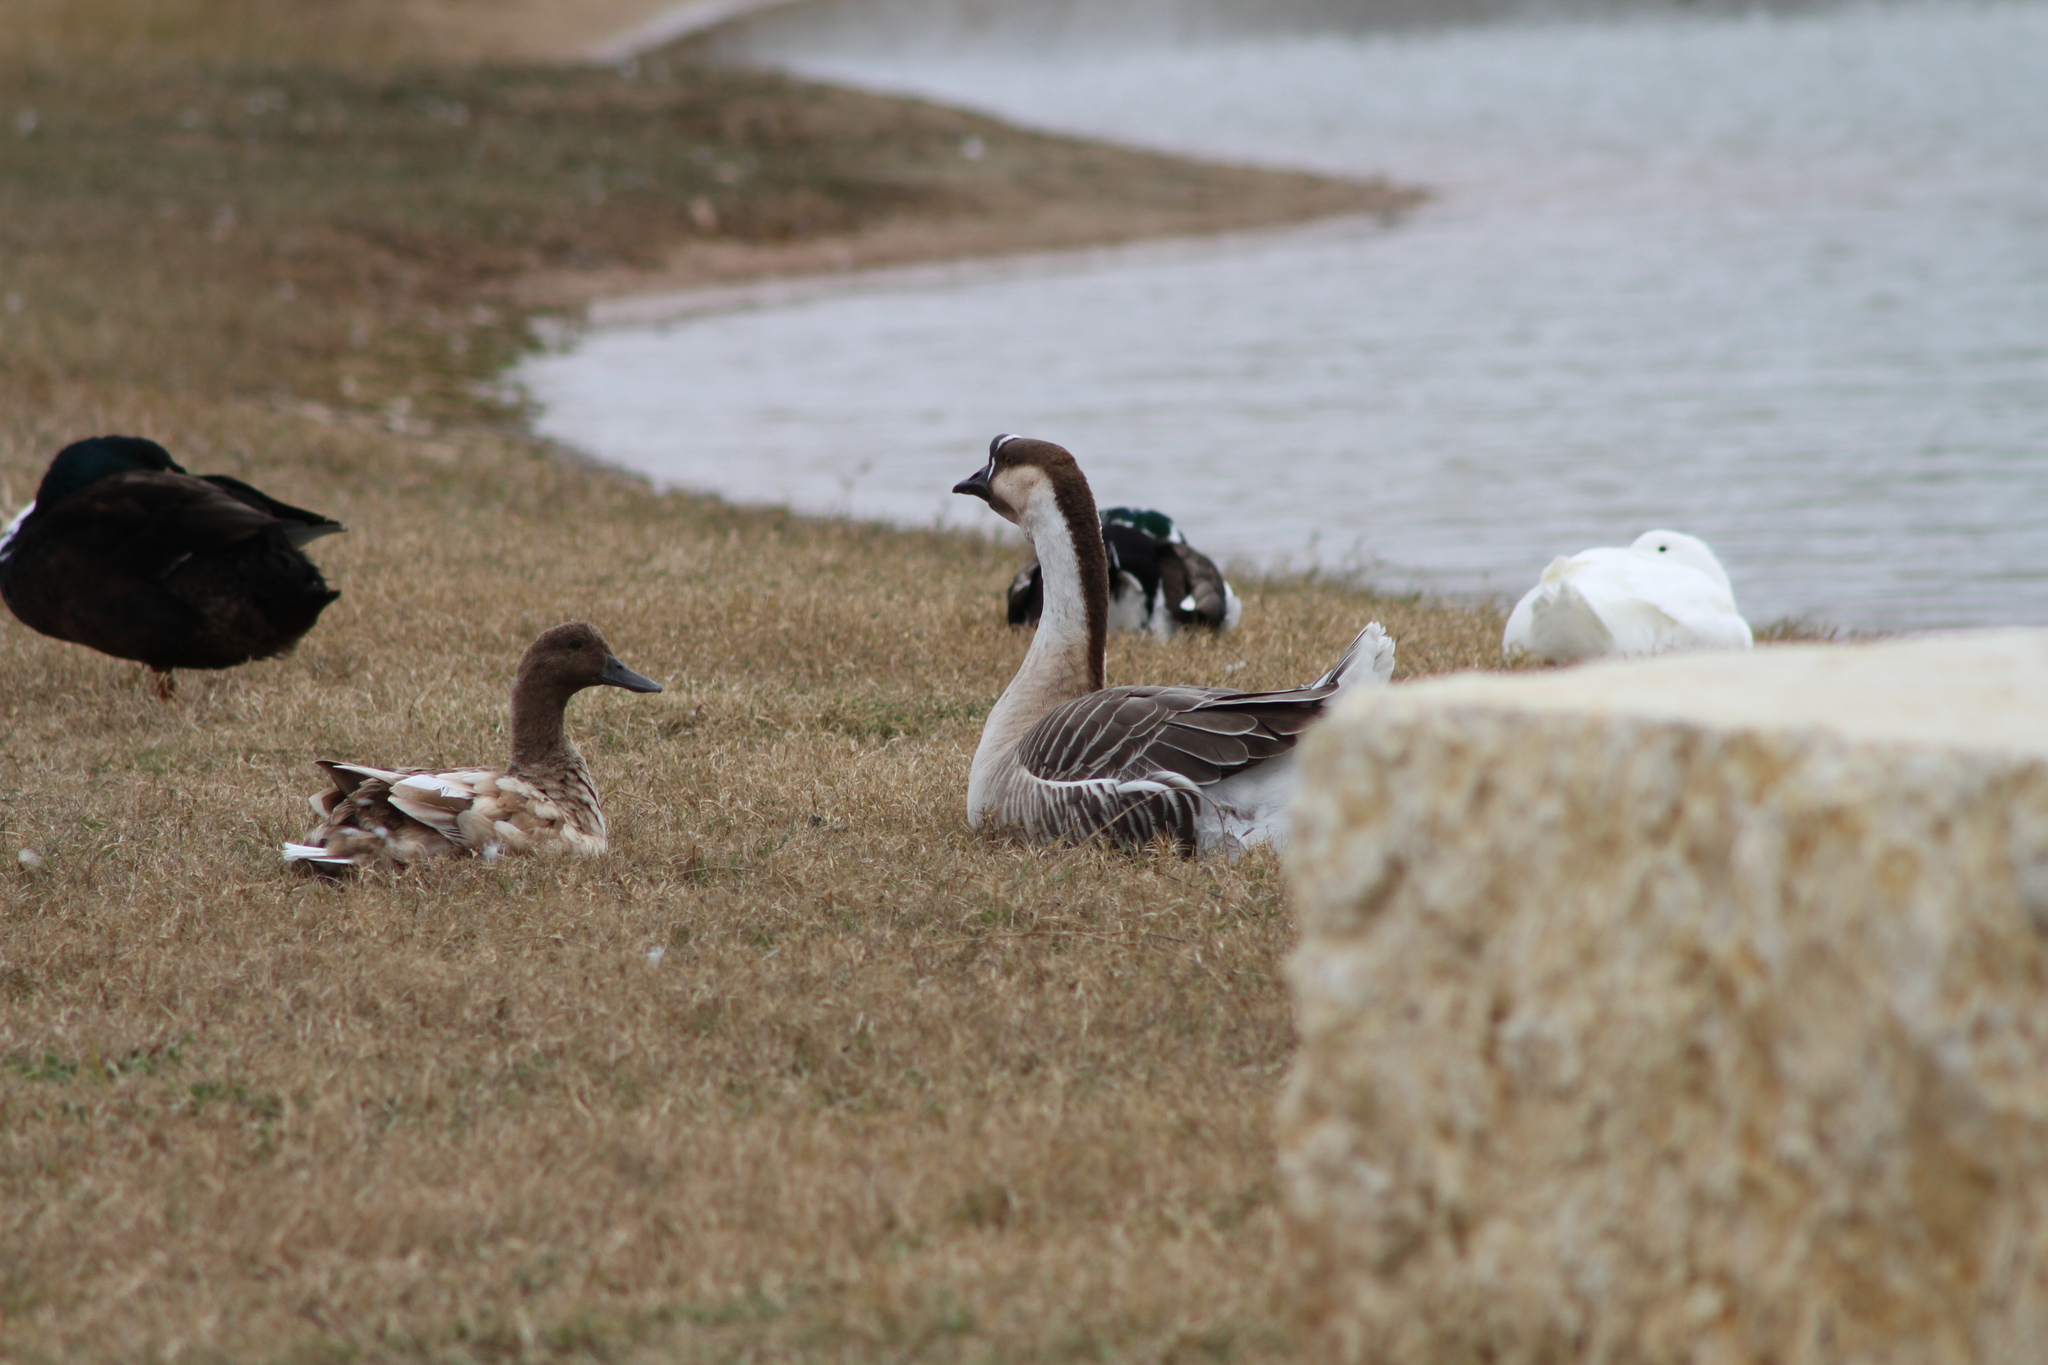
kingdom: Animalia
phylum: Chordata
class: Aves
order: Anseriformes
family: Anatidae
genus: Anas
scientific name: Anas platyrhynchos
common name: Mallard
